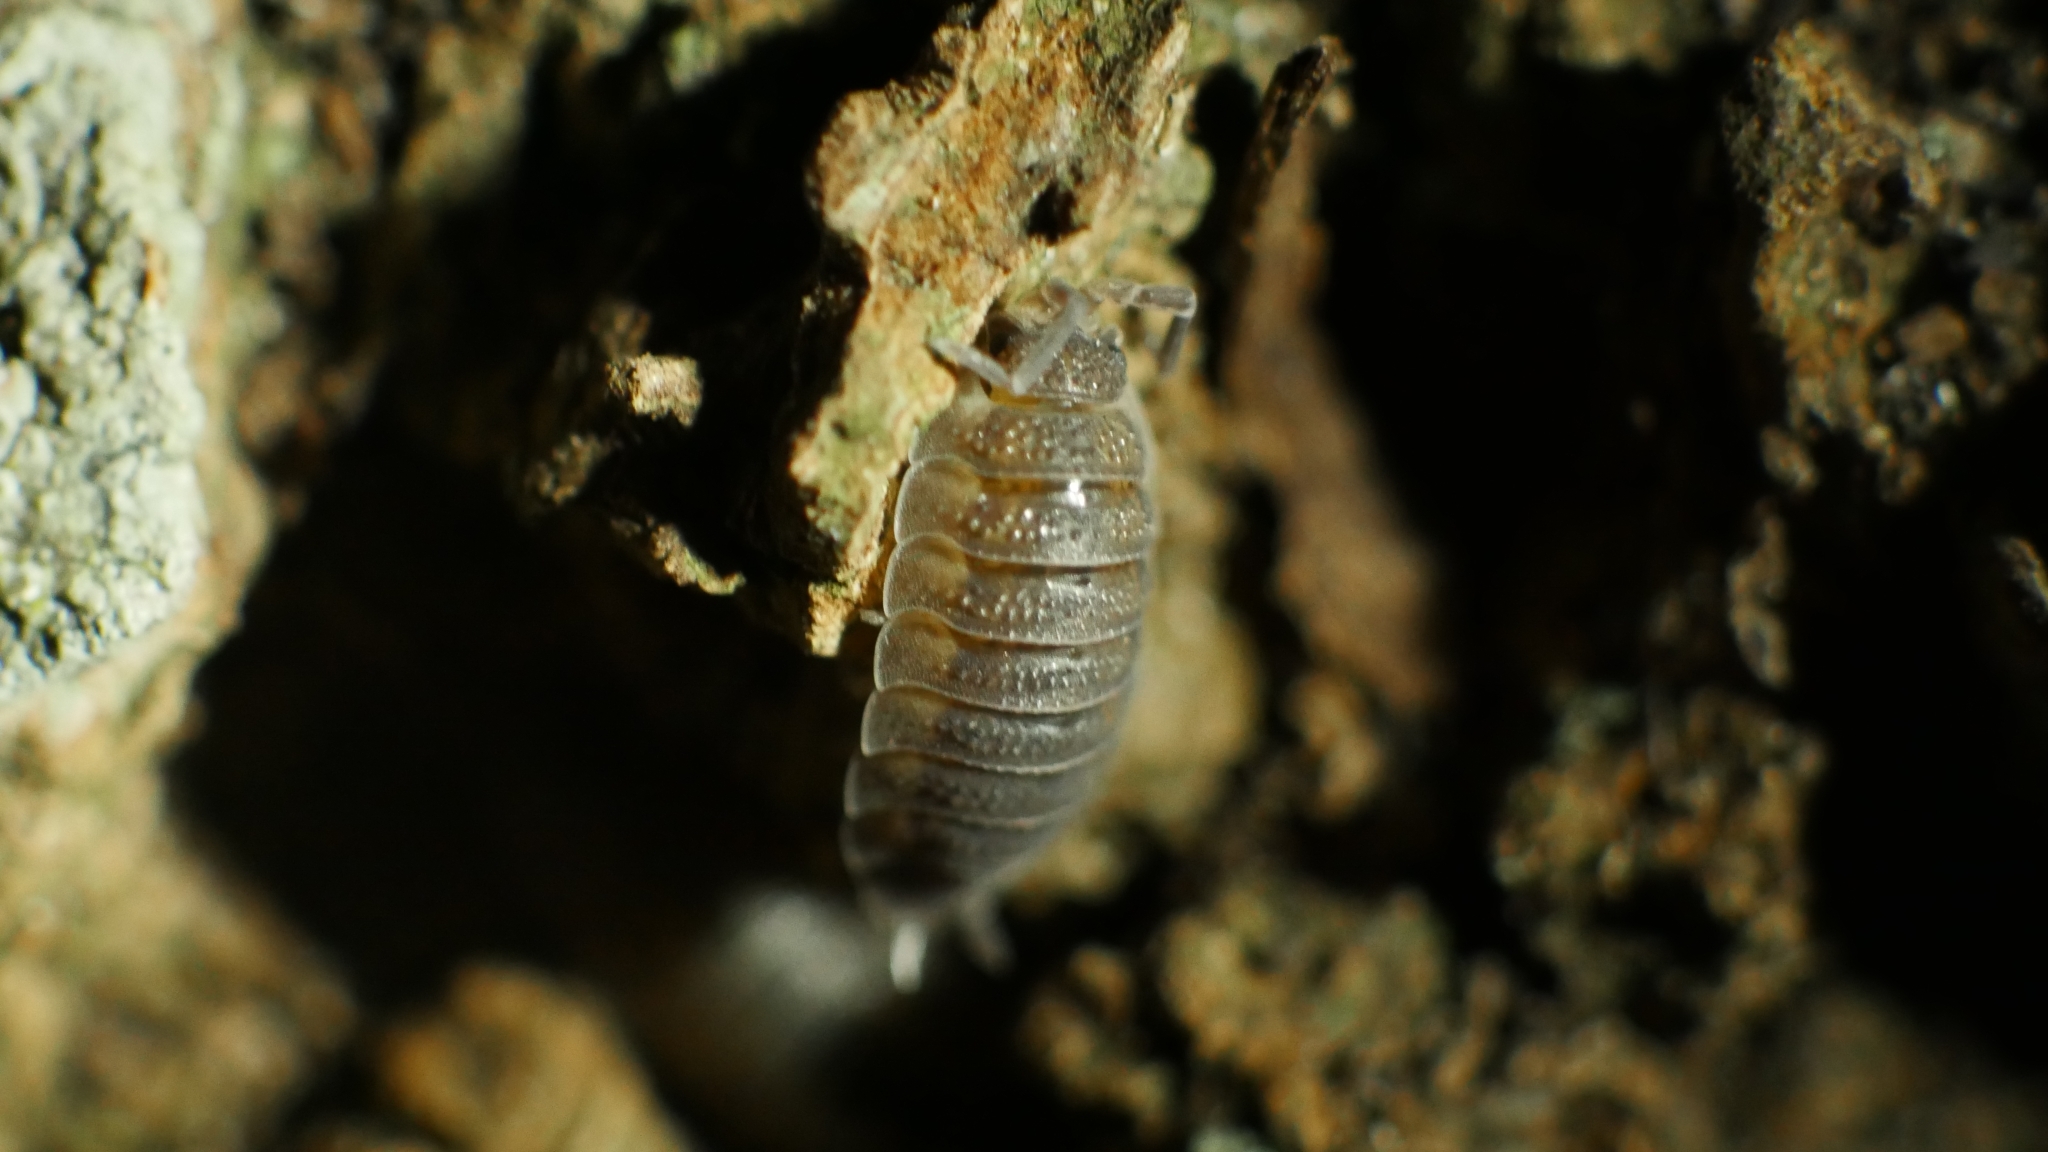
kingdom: Animalia
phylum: Arthropoda
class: Malacostraca
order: Isopoda
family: Porcellionidae
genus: Porcellio
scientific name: Porcellio scaber
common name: Common rough woodlouse
